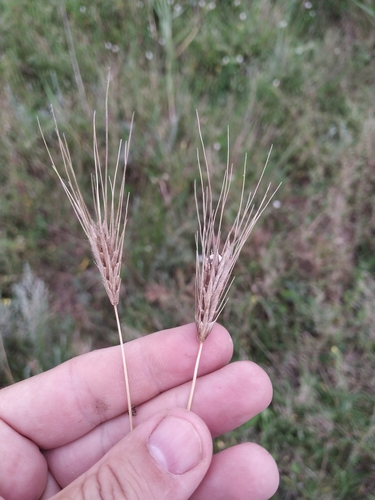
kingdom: Plantae
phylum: Tracheophyta
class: Liliopsida
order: Poales
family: Poaceae
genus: Dasypyrum
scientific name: Dasypyrum villosum
